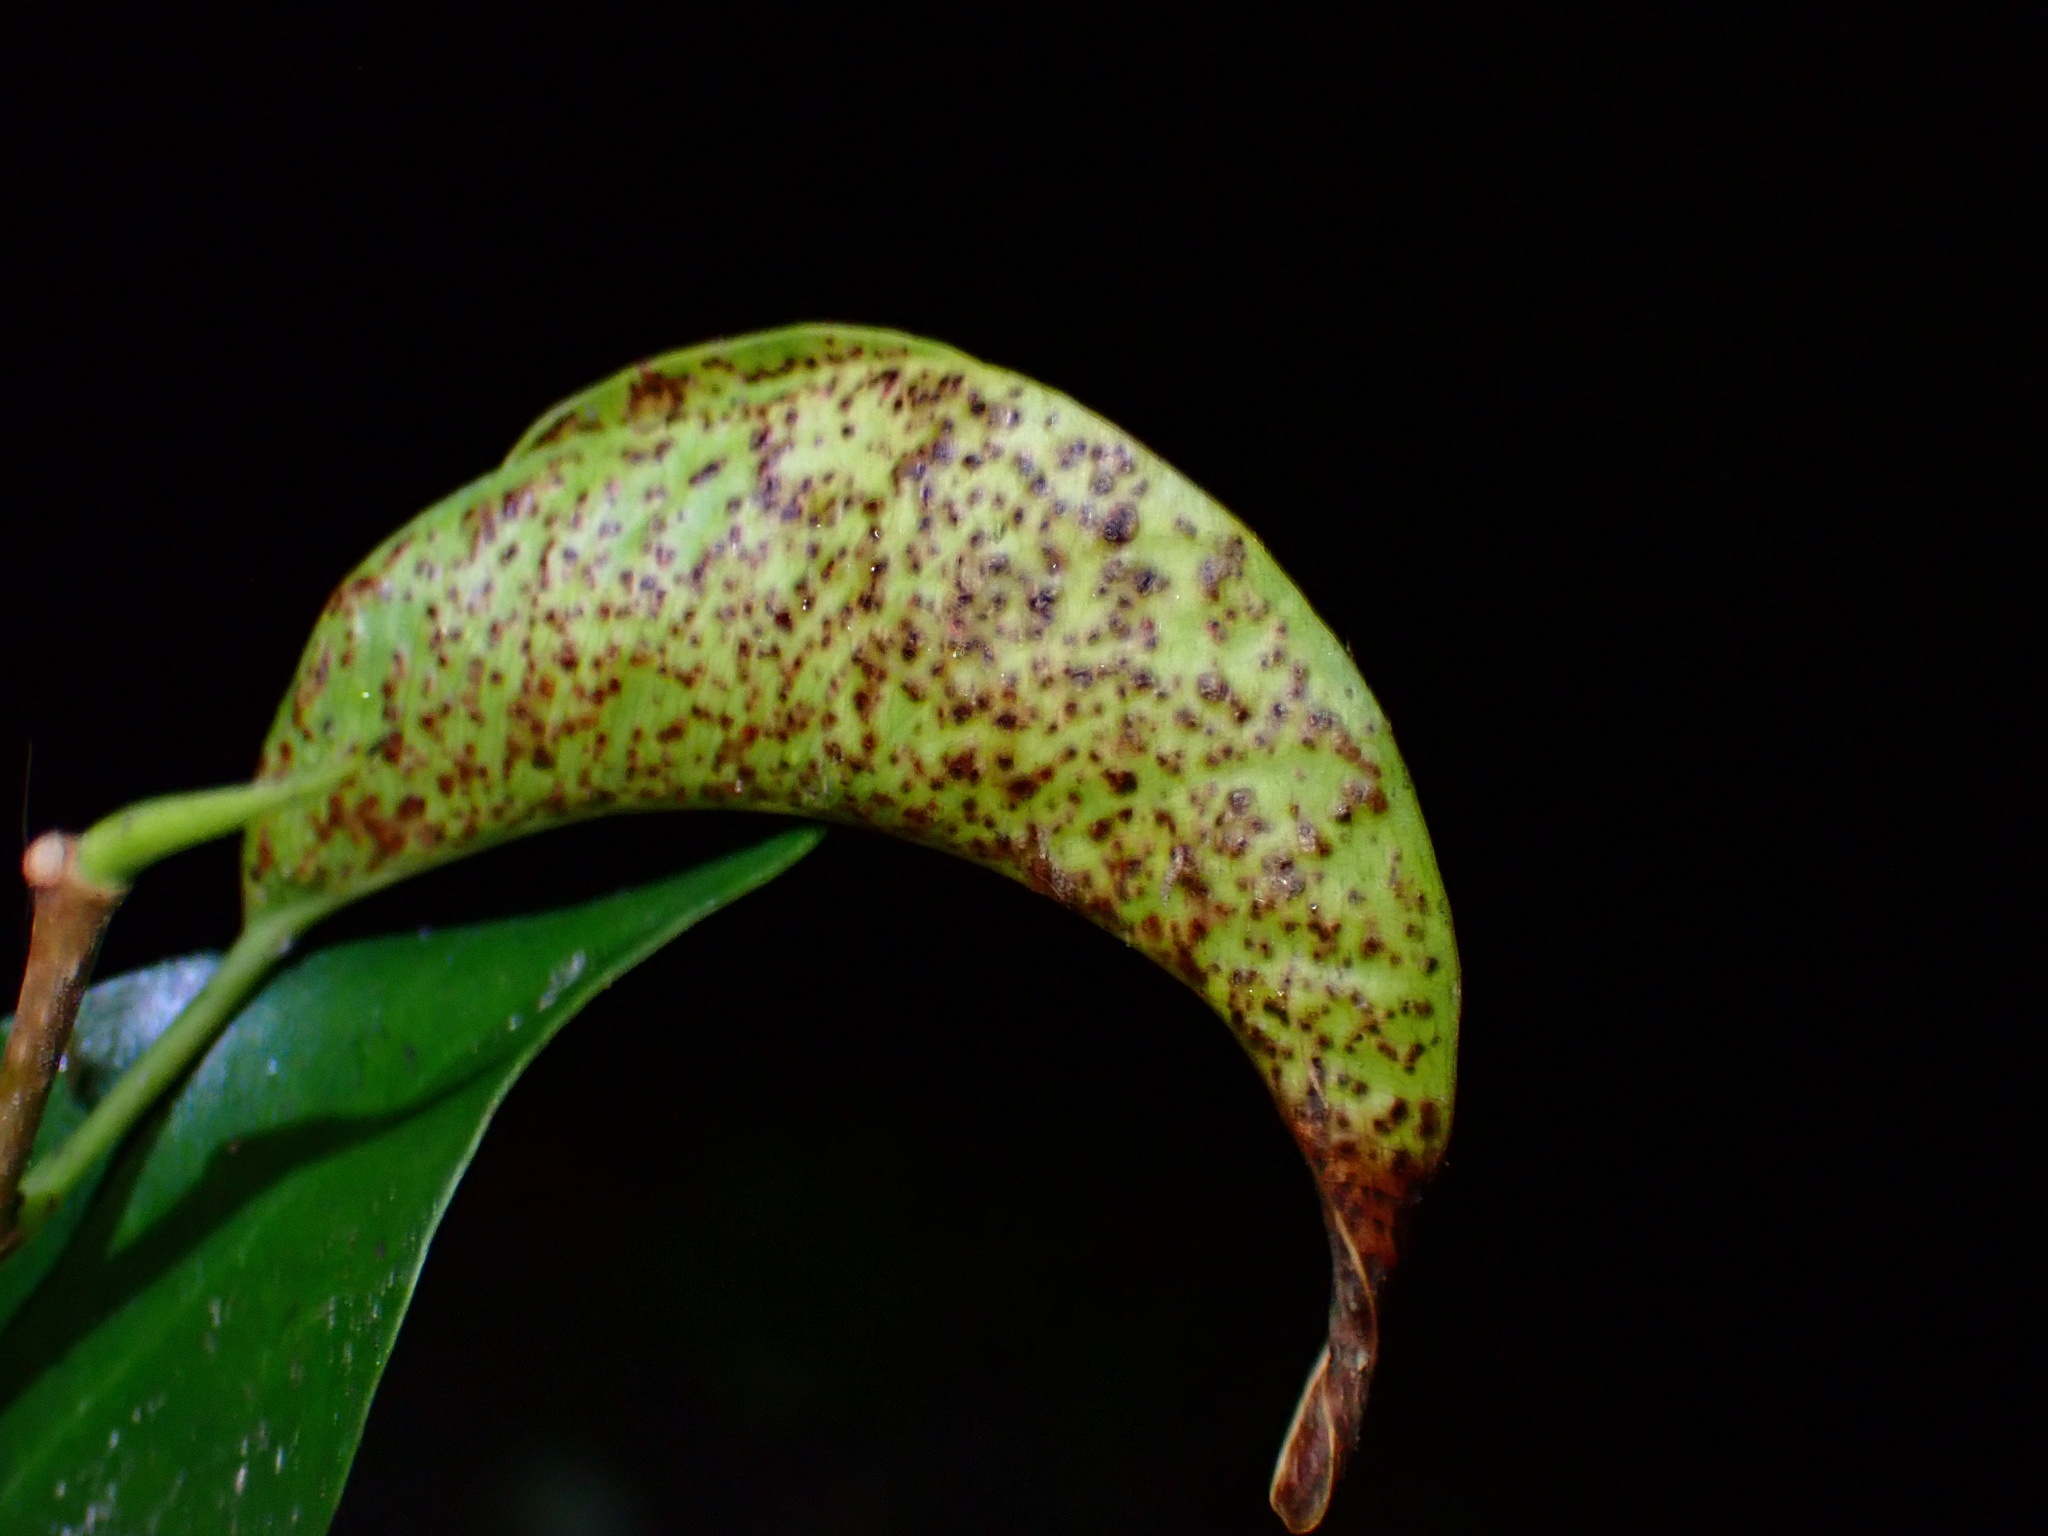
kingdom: Animalia
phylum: Arthropoda
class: Insecta
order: Thysanoptera
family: Phlaeothripidae
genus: Gynaikothrips
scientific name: Gynaikothrips uzeli
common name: Leaf-gall thrips
